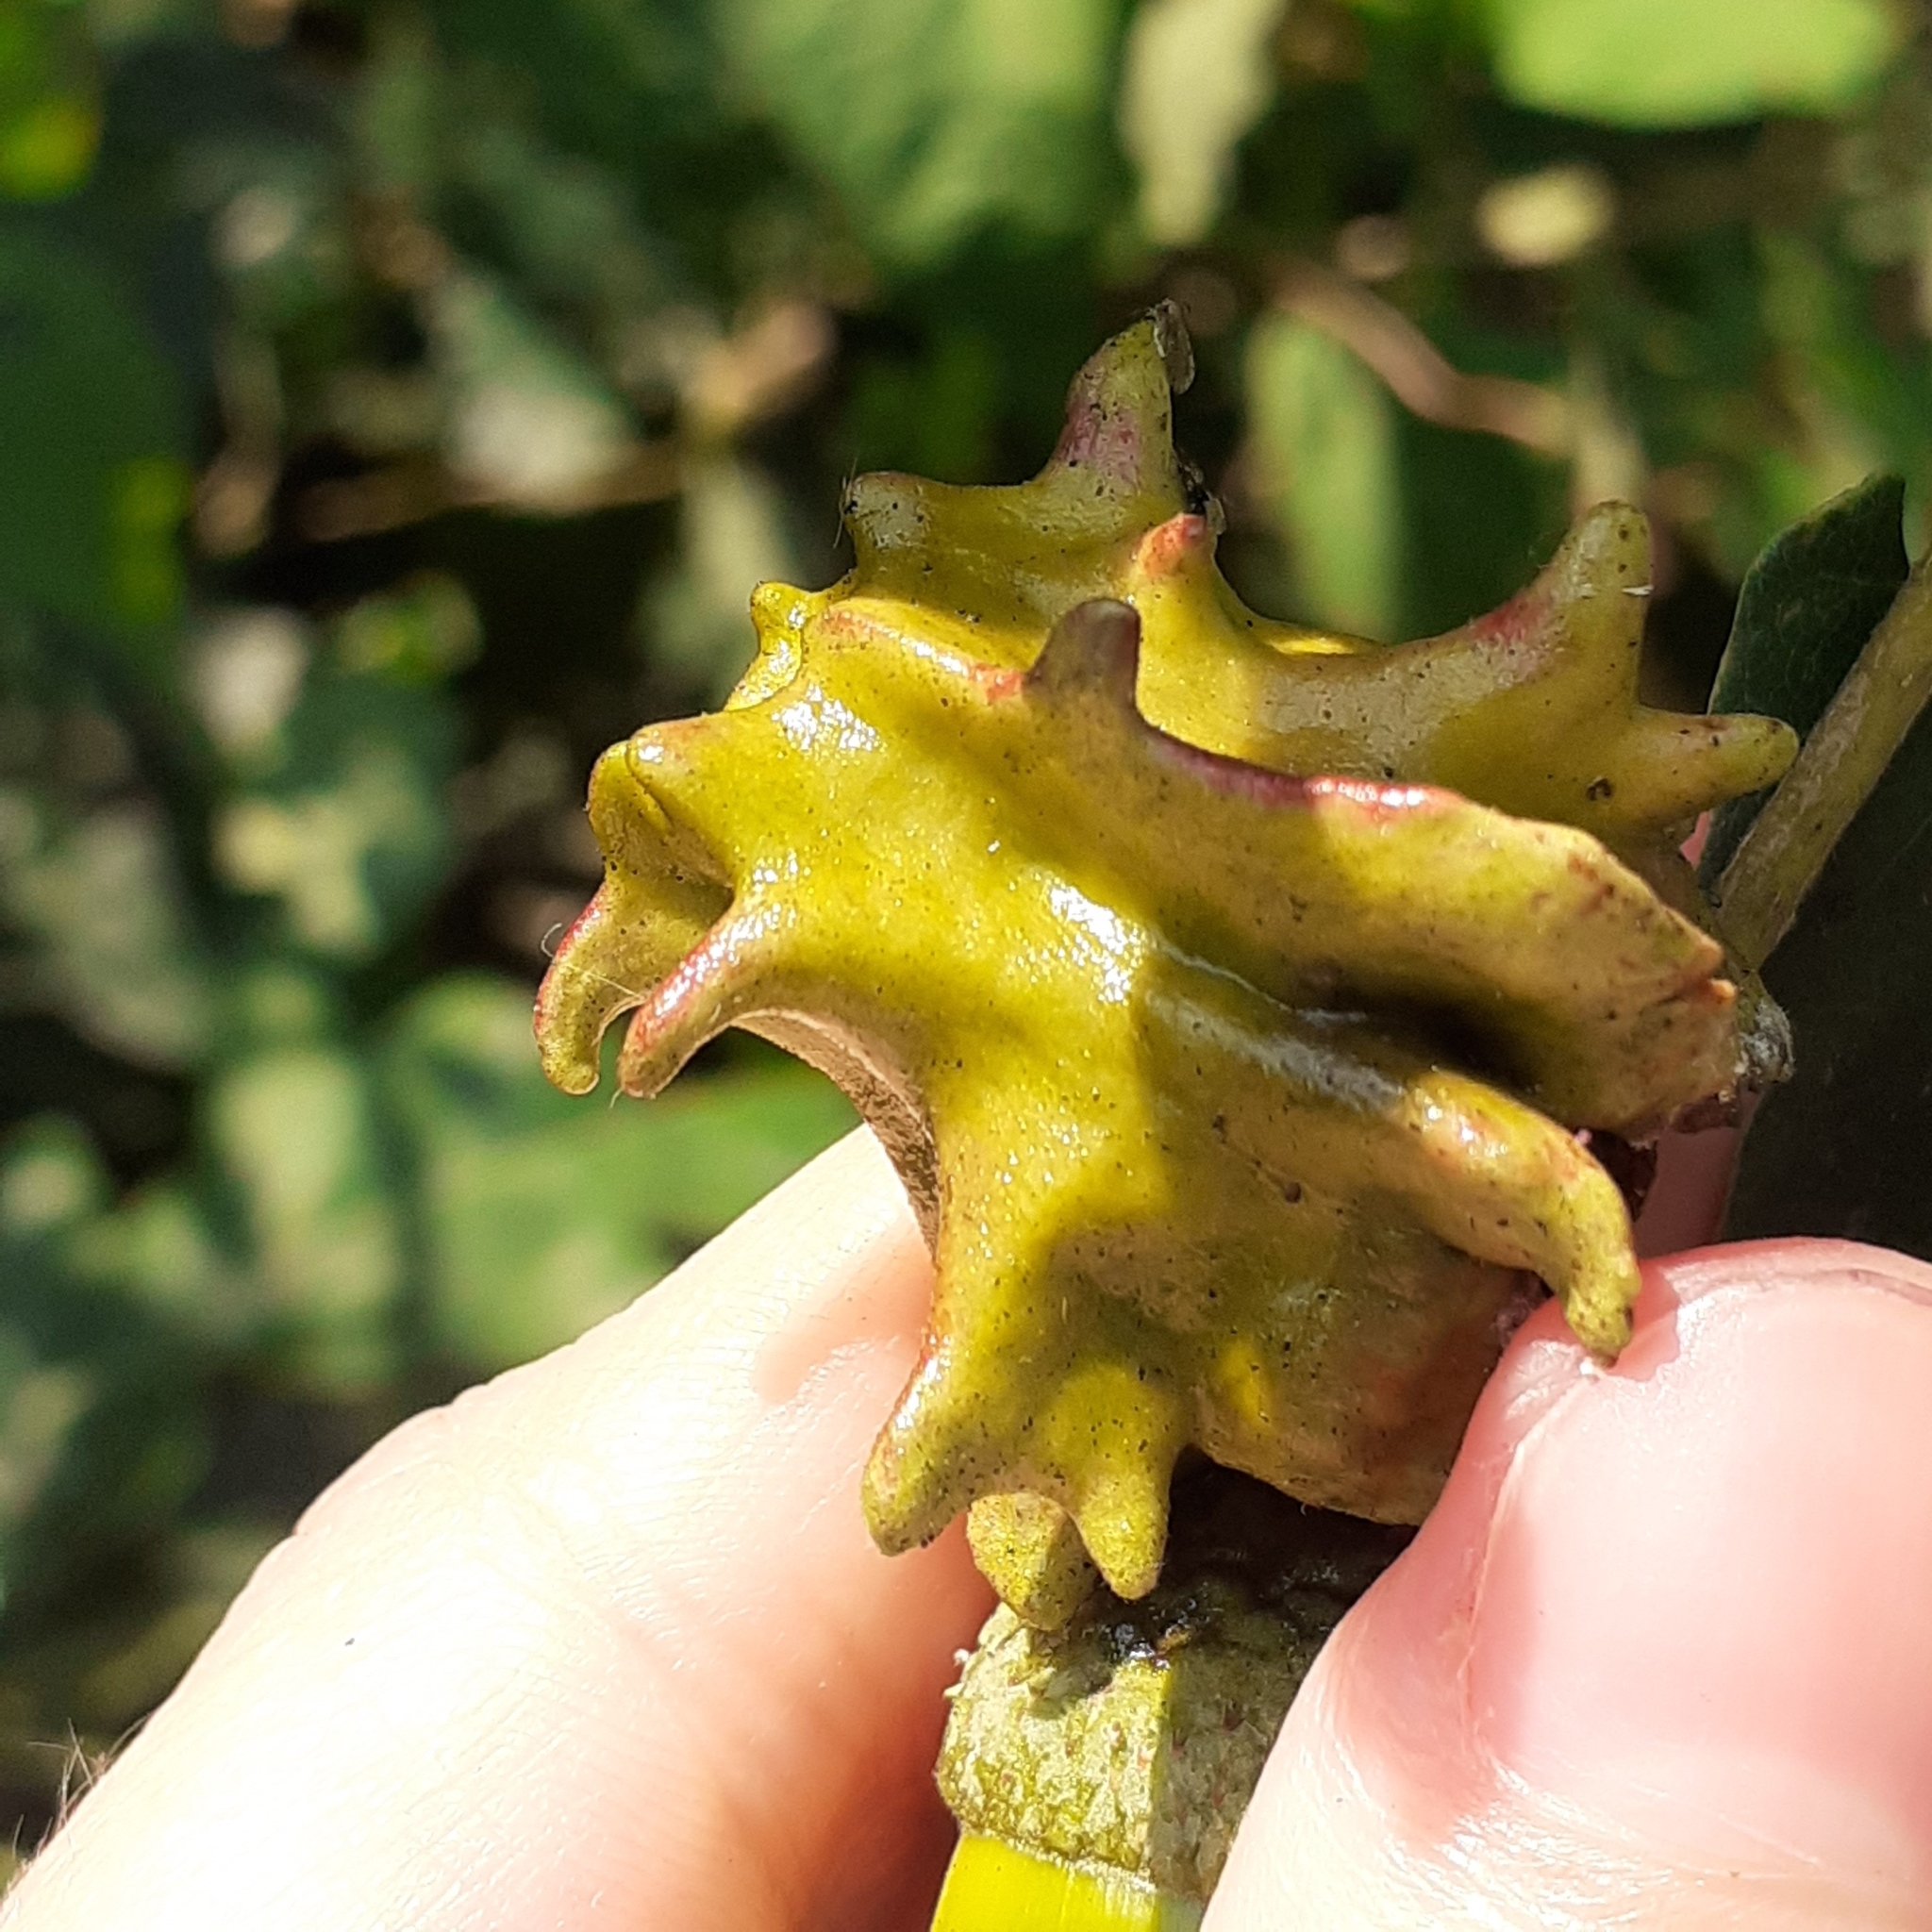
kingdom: Animalia
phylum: Arthropoda
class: Insecta
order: Hymenoptera
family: Cynipidae
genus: Andricus
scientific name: Andricus quercuscalicis
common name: Knopper gall
